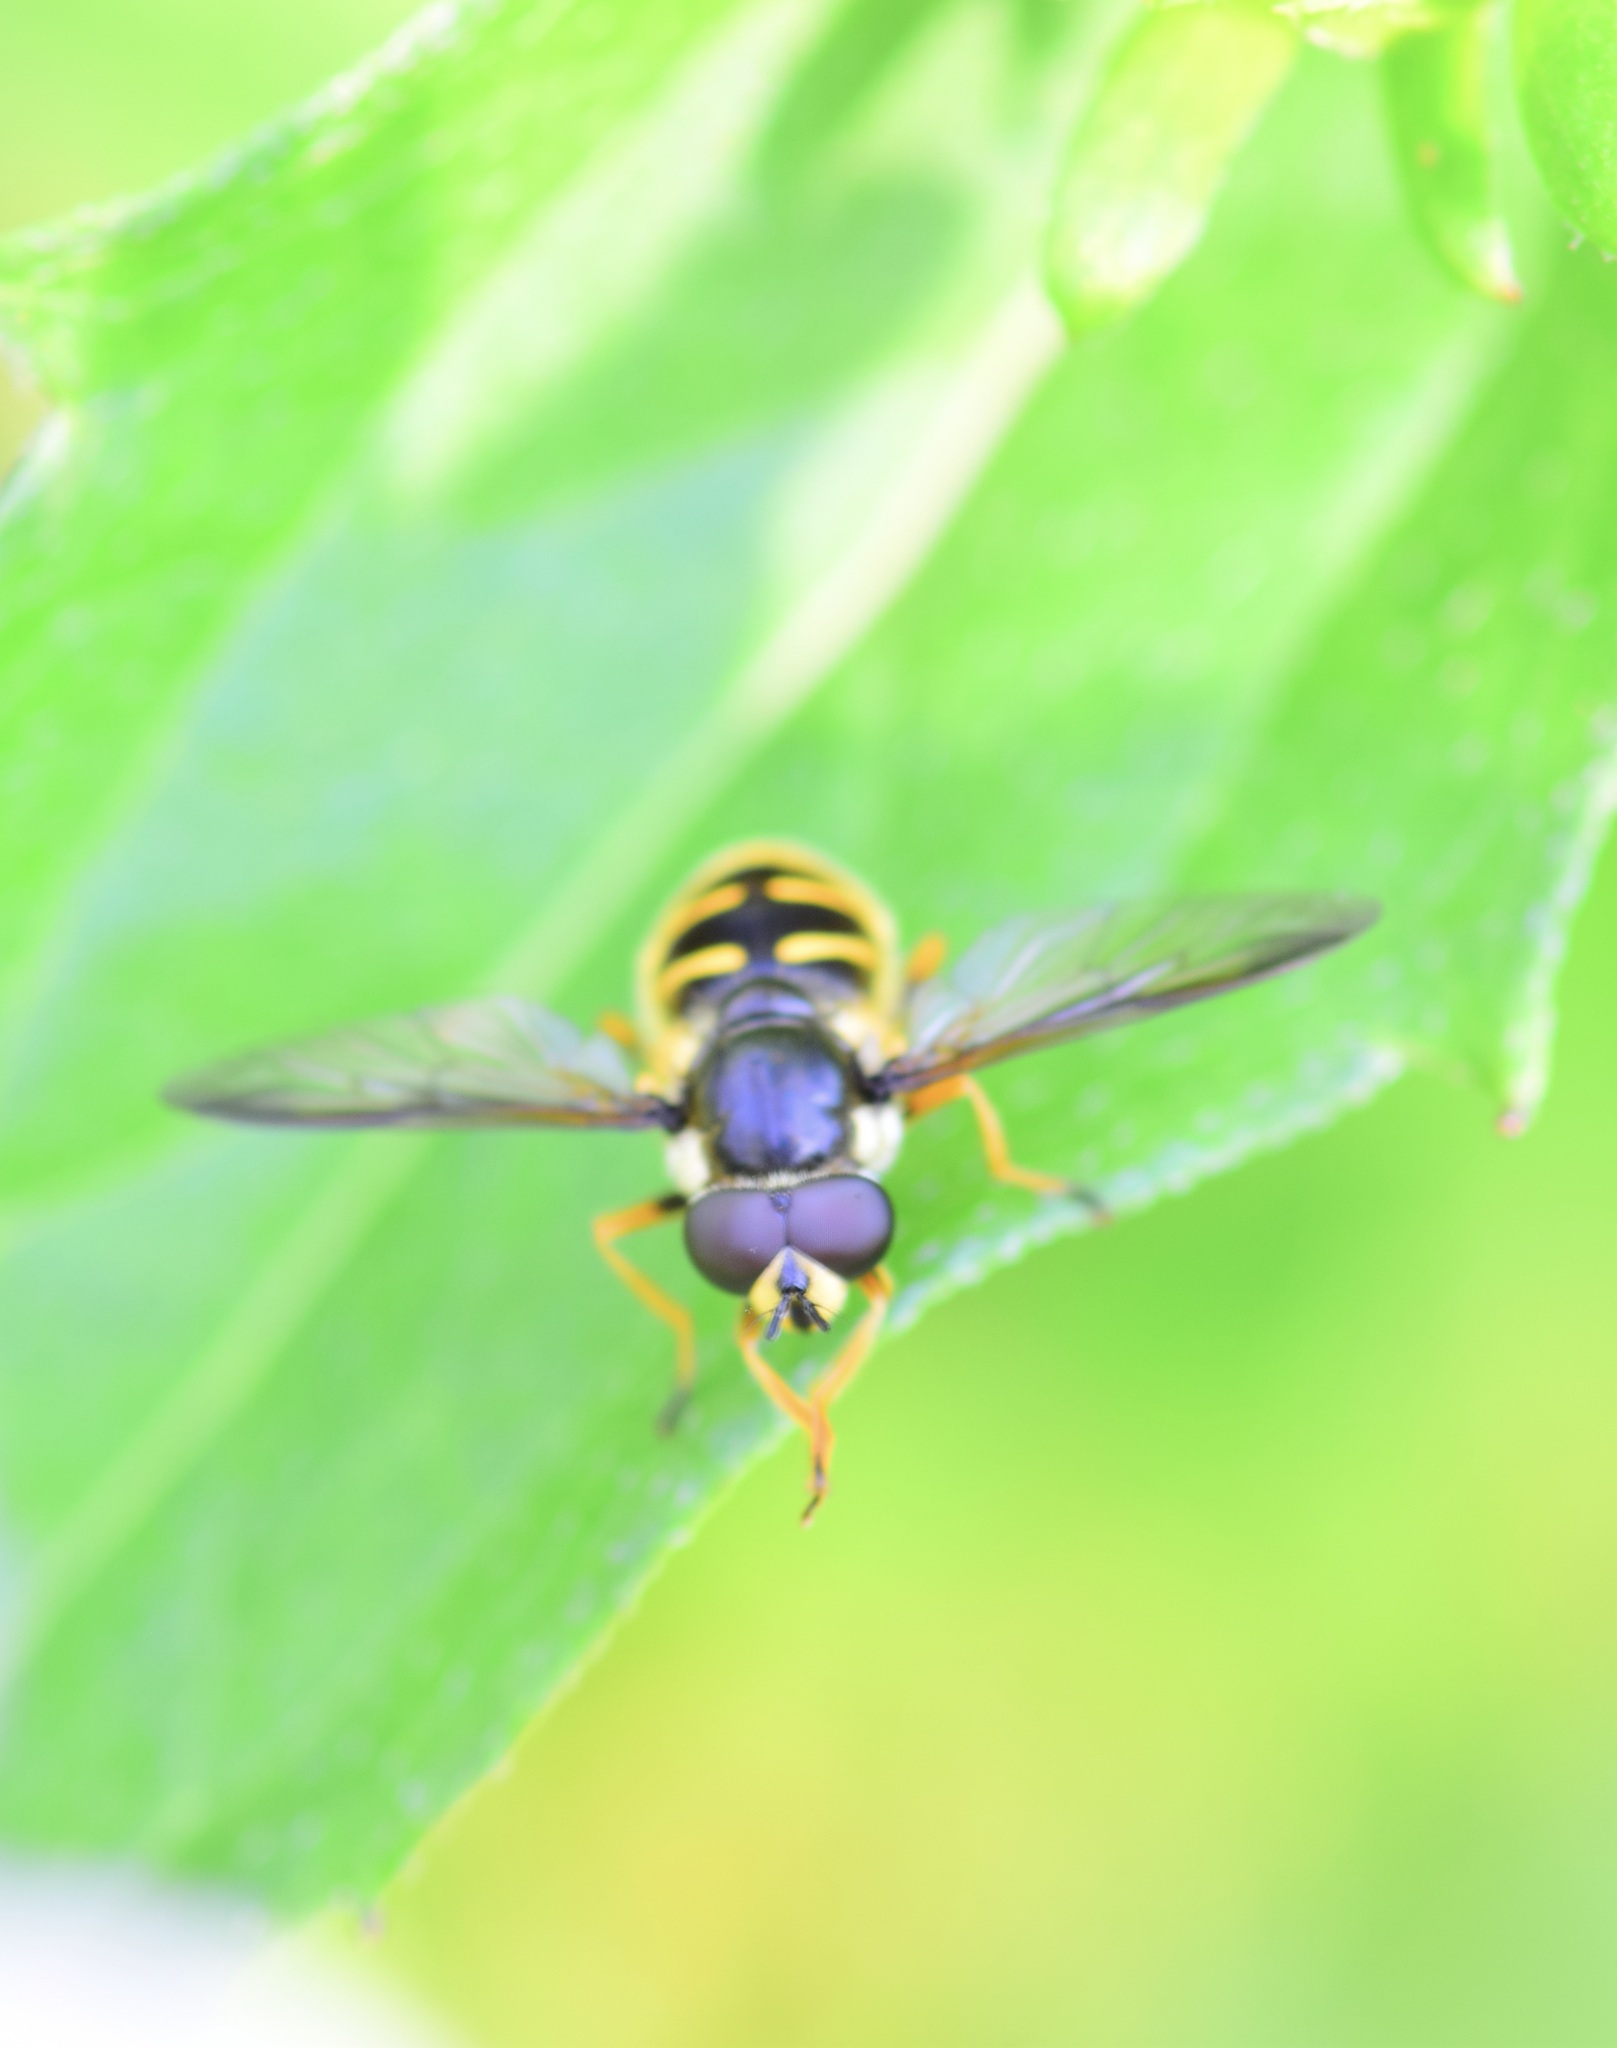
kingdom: Animalia
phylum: Arthropoda
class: Insecta
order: Diptera
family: Syrphidae
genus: Sericomyia
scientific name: Sericomyia chrysotoxoides
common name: Oblique-banded pond fly
